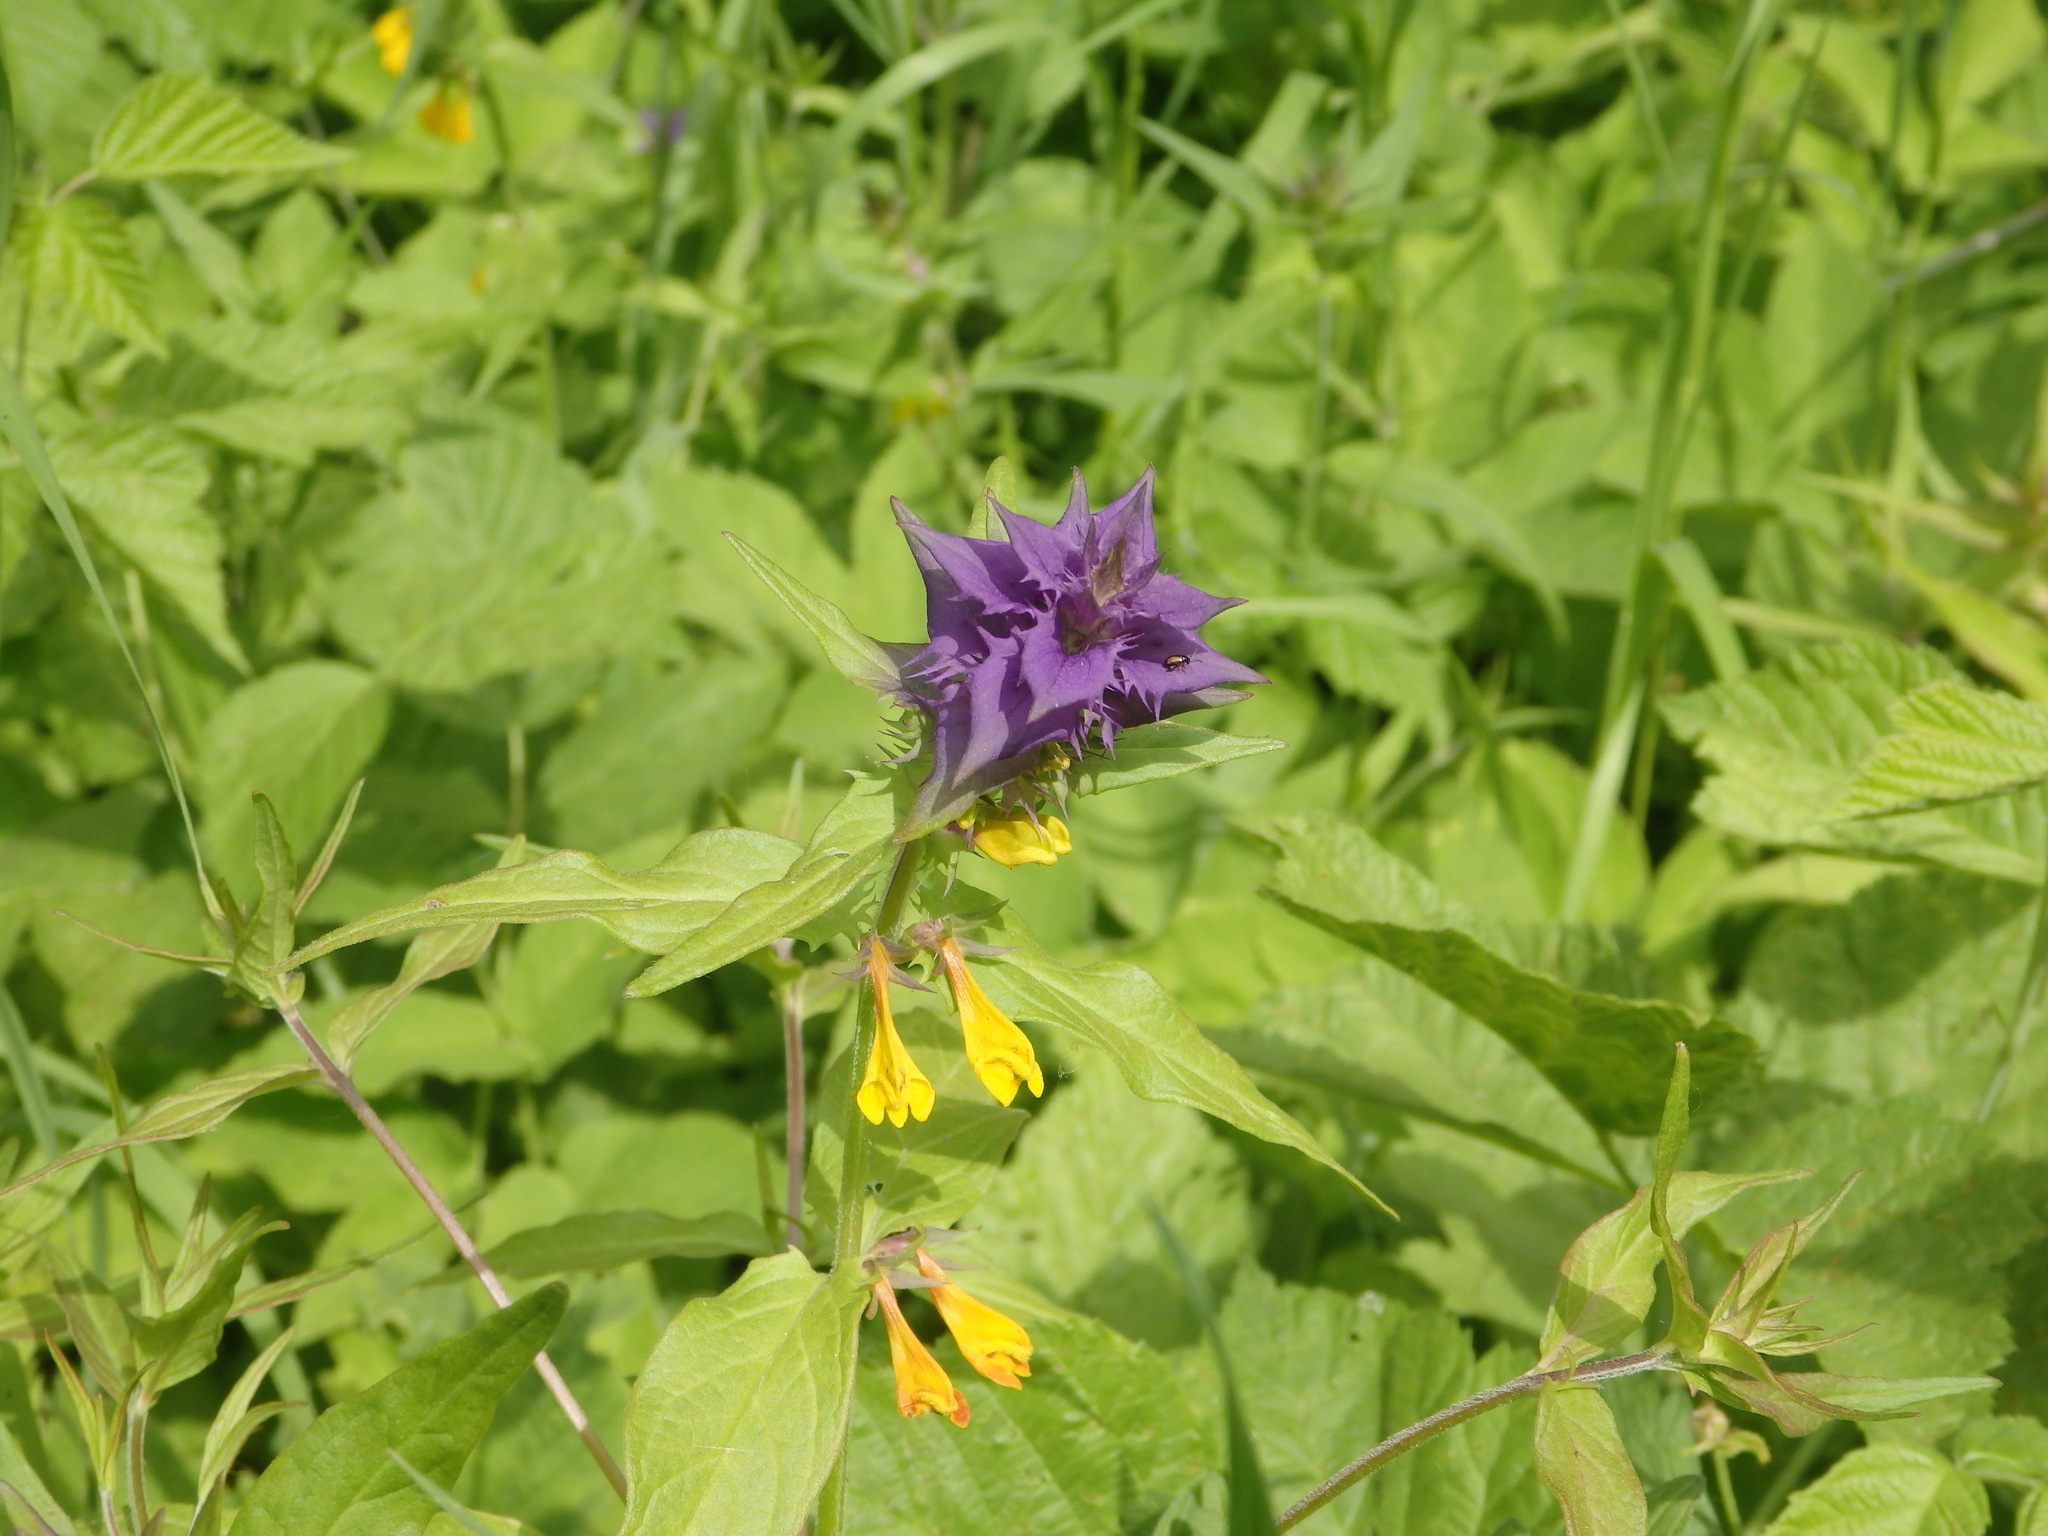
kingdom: Plantae
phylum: Tracheophyta
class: Magnoliopsida
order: Lamiales
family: Orobanchaceae
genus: Melampyrum
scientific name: Melampyrum nemorosum
